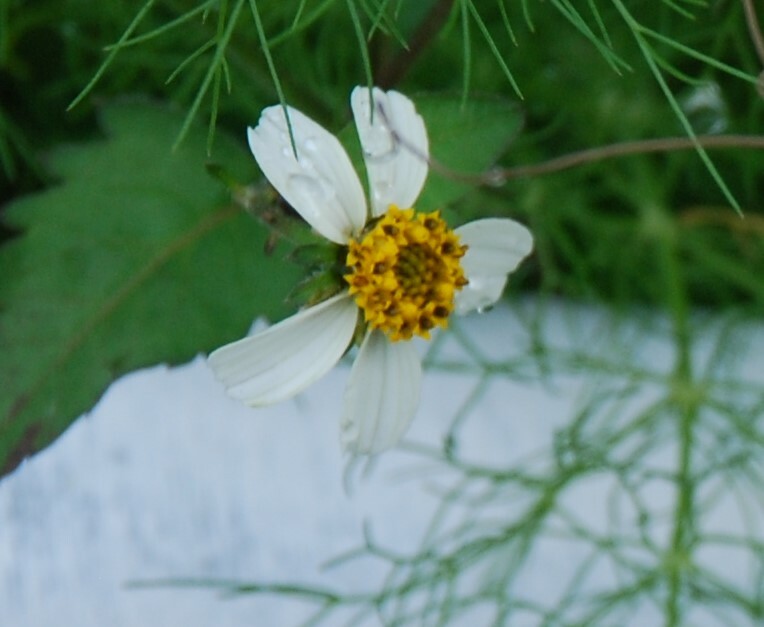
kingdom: Plantae
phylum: Tracheophyta
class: Magnoliopsida
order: Asterales
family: Asteraceae
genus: Bidens
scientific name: Bidens pilosa
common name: Black-jack
